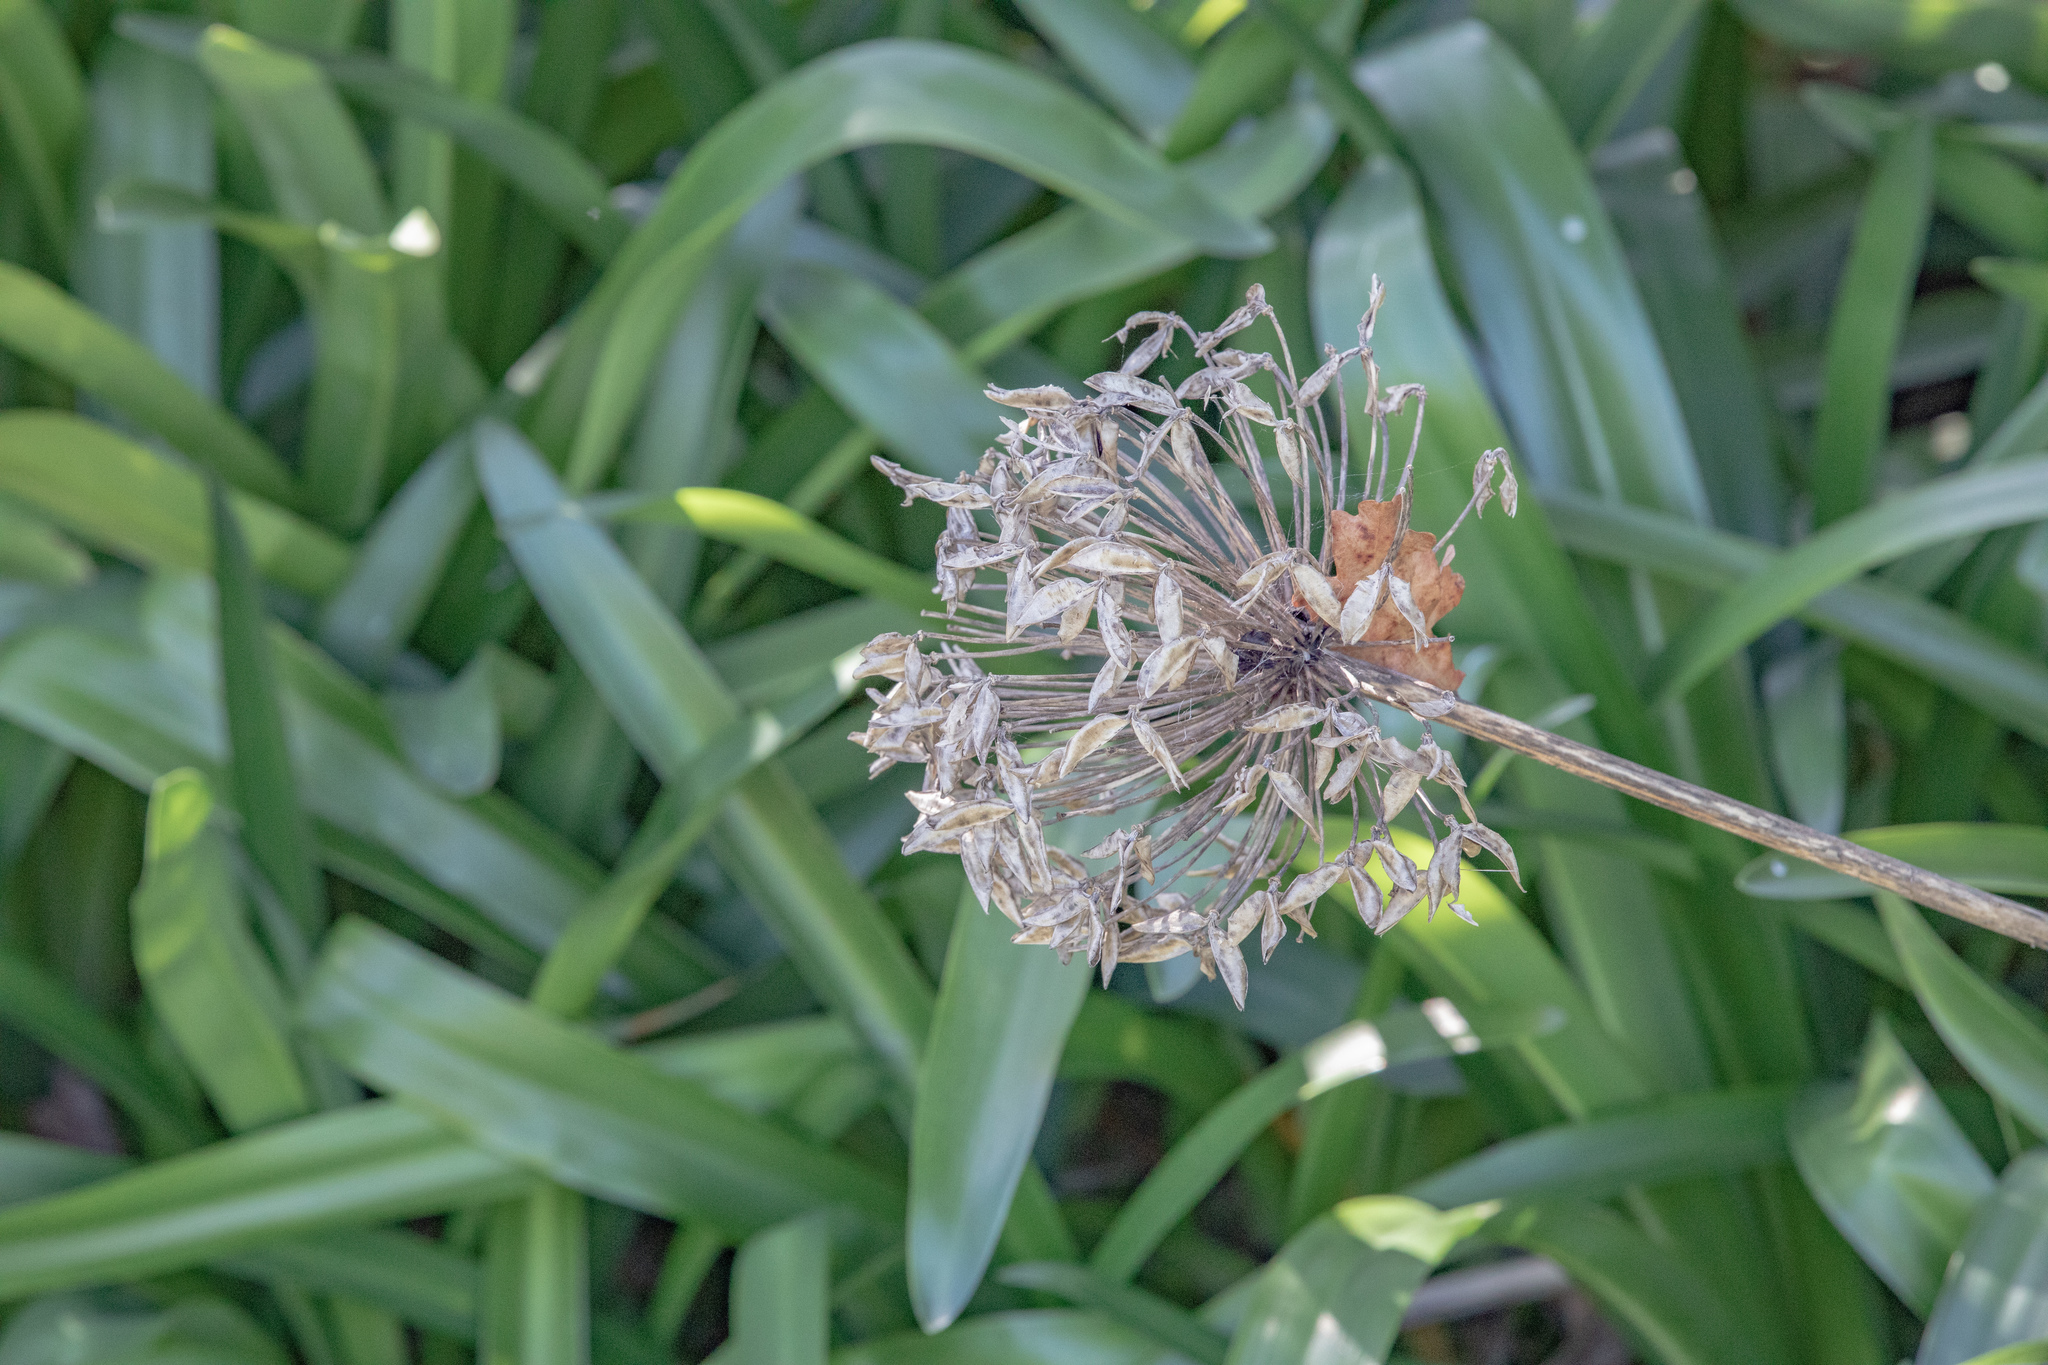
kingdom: Plantae
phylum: Tracheophyta
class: Liliopsida
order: Asparagales
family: Amaryllidaceae
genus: Agapanthus
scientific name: Agapanthus praecox
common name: African-lily
